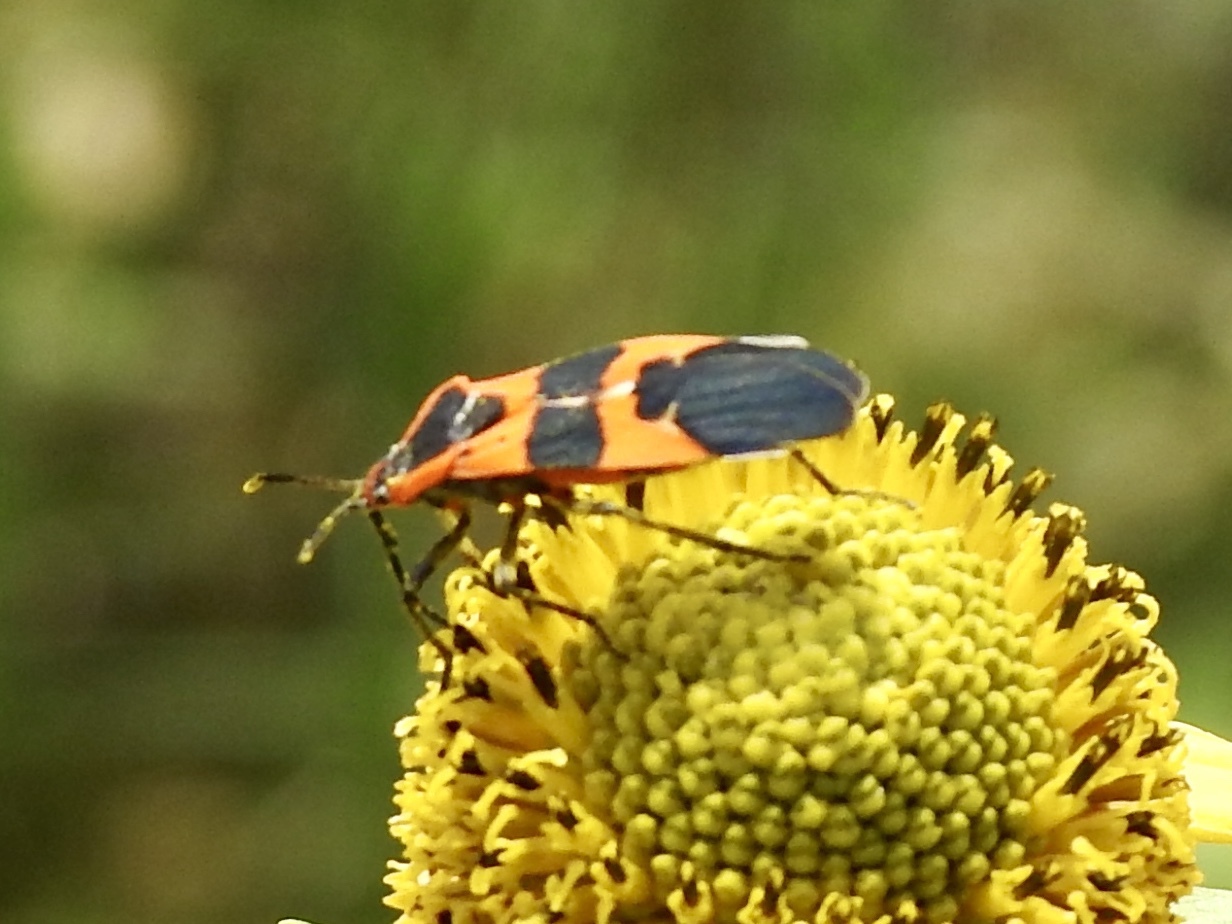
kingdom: Animalia
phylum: Arthropoda
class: Insecta
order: Hemiptera
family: Lygaeidae
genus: Oncopeltus
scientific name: Oncopeltus fasciatus
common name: Large milkweed bug
